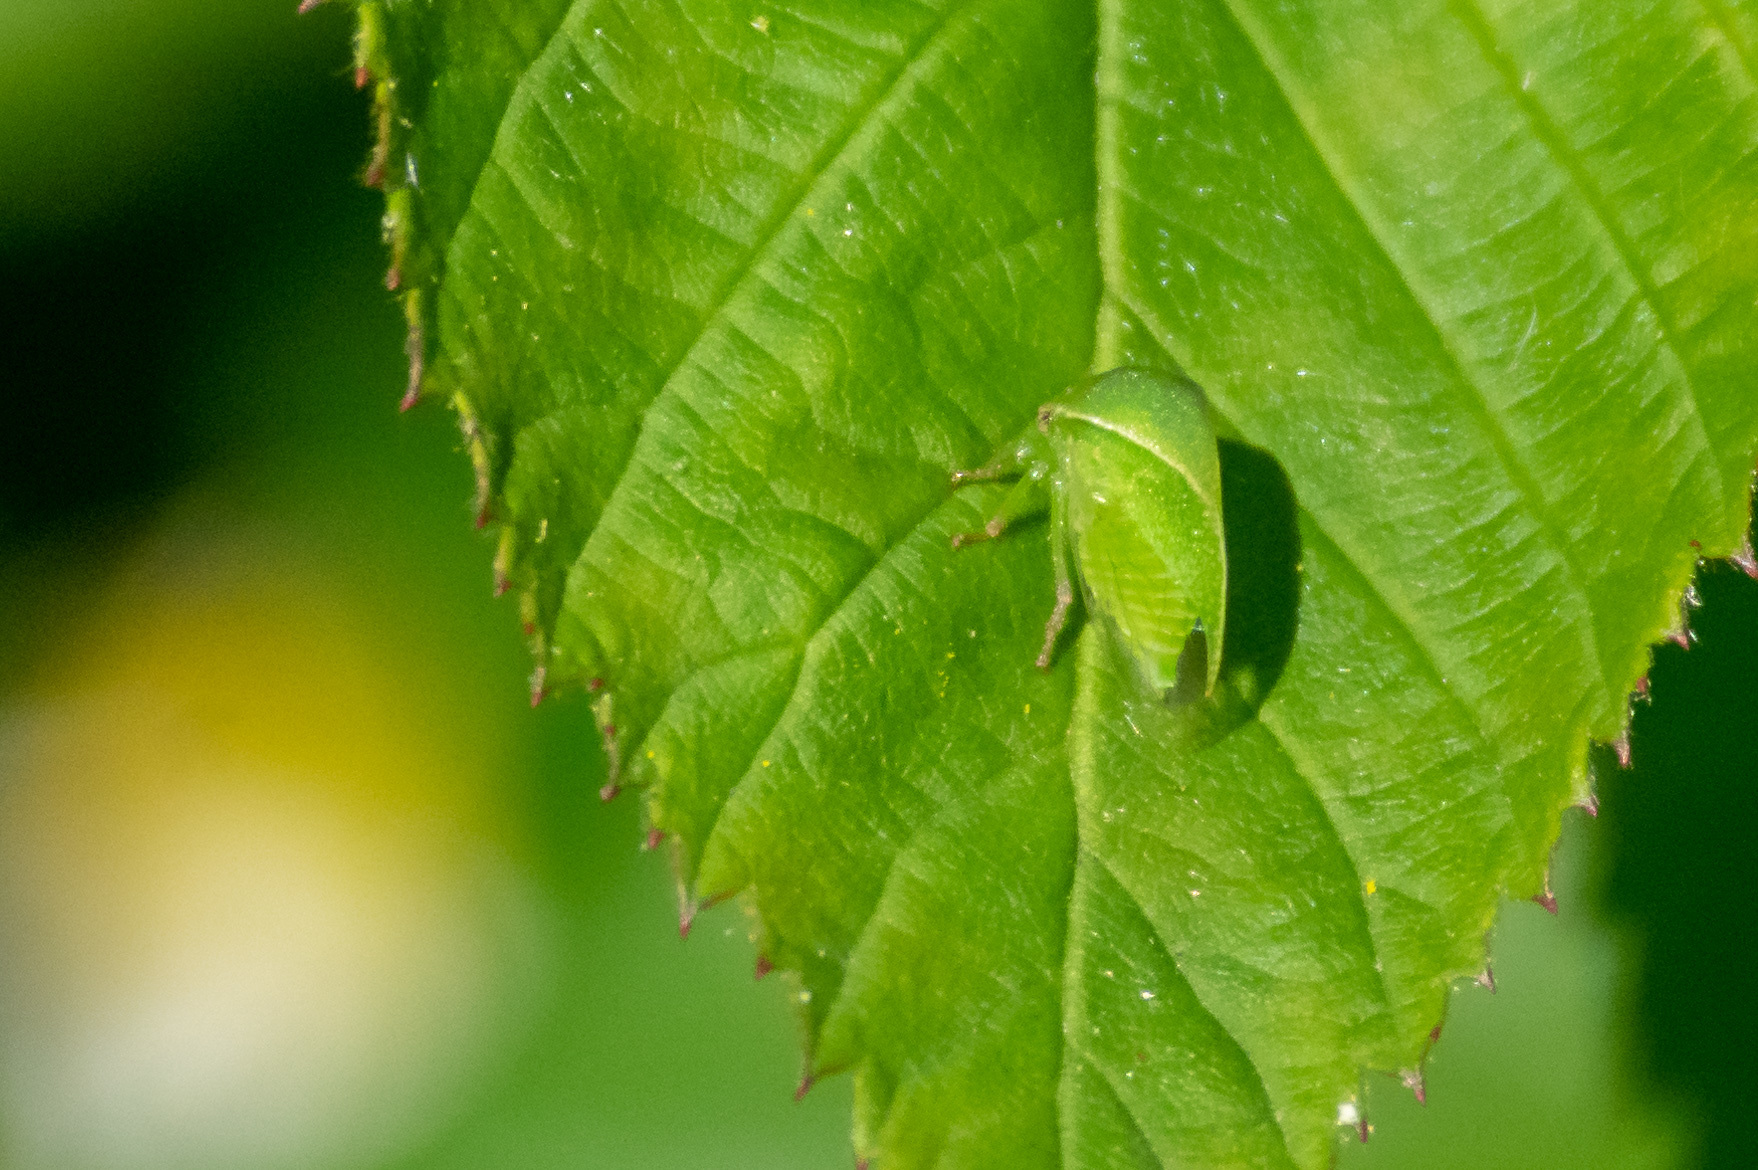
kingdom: Animalia
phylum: Arthropoda
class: Insecta
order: Hemiptera
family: Membracidae
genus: Spissistilus
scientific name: Spissistilus festina
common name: Membracid bug
